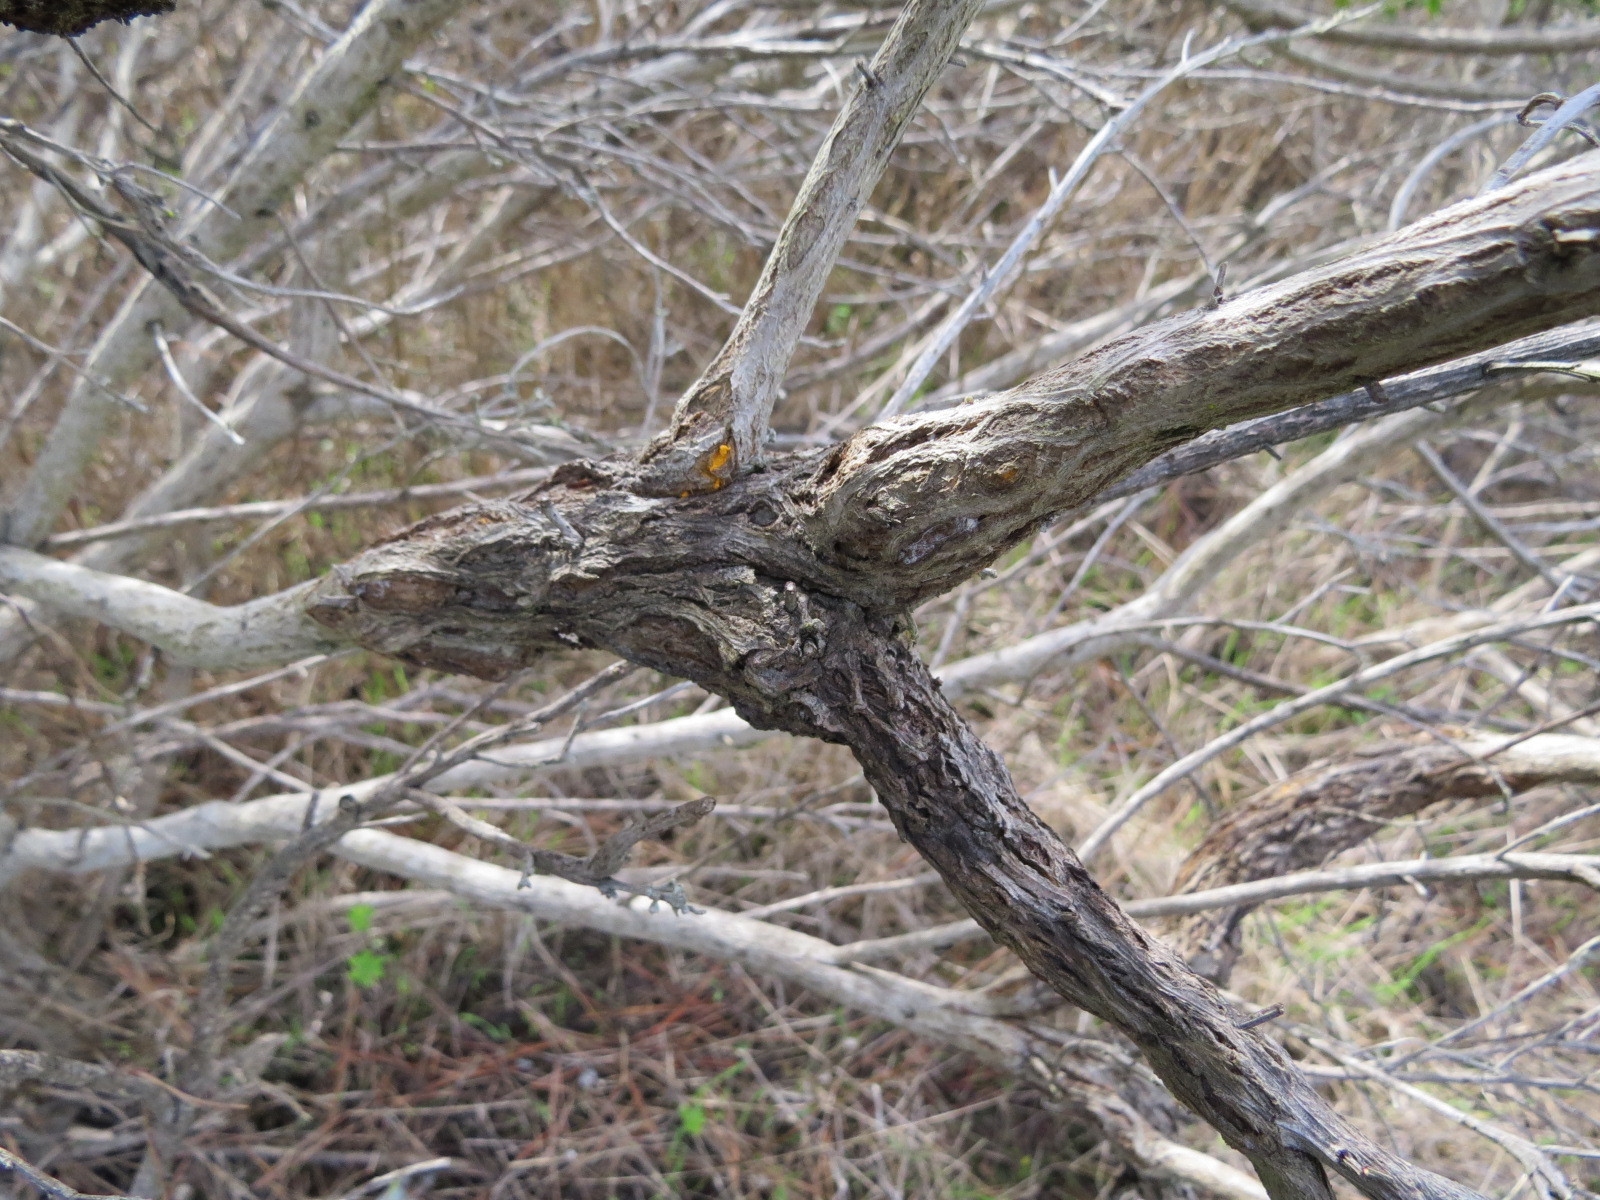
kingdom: Fungi
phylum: Basidiomycota
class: Pucciniomycetes
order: Pucciniales
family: Pucciniaceae
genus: Eriosporangium
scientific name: Eriosporangium evadens
